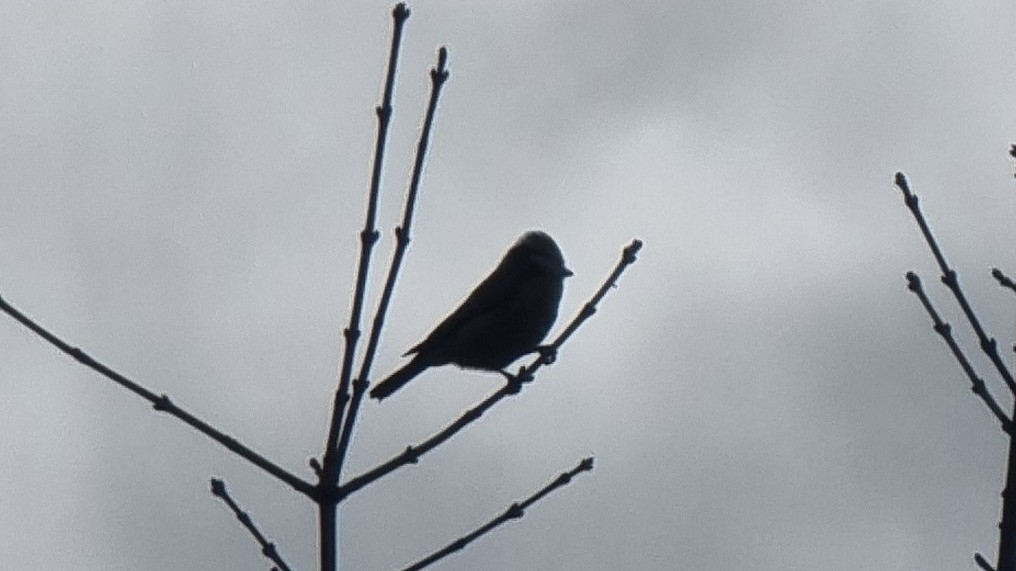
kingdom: Animalia
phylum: Chordata
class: Aves
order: Passeriformes
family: Paridae
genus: Cyanistes
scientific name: Cyanistes caeruleus
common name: Eurasian blue tit
